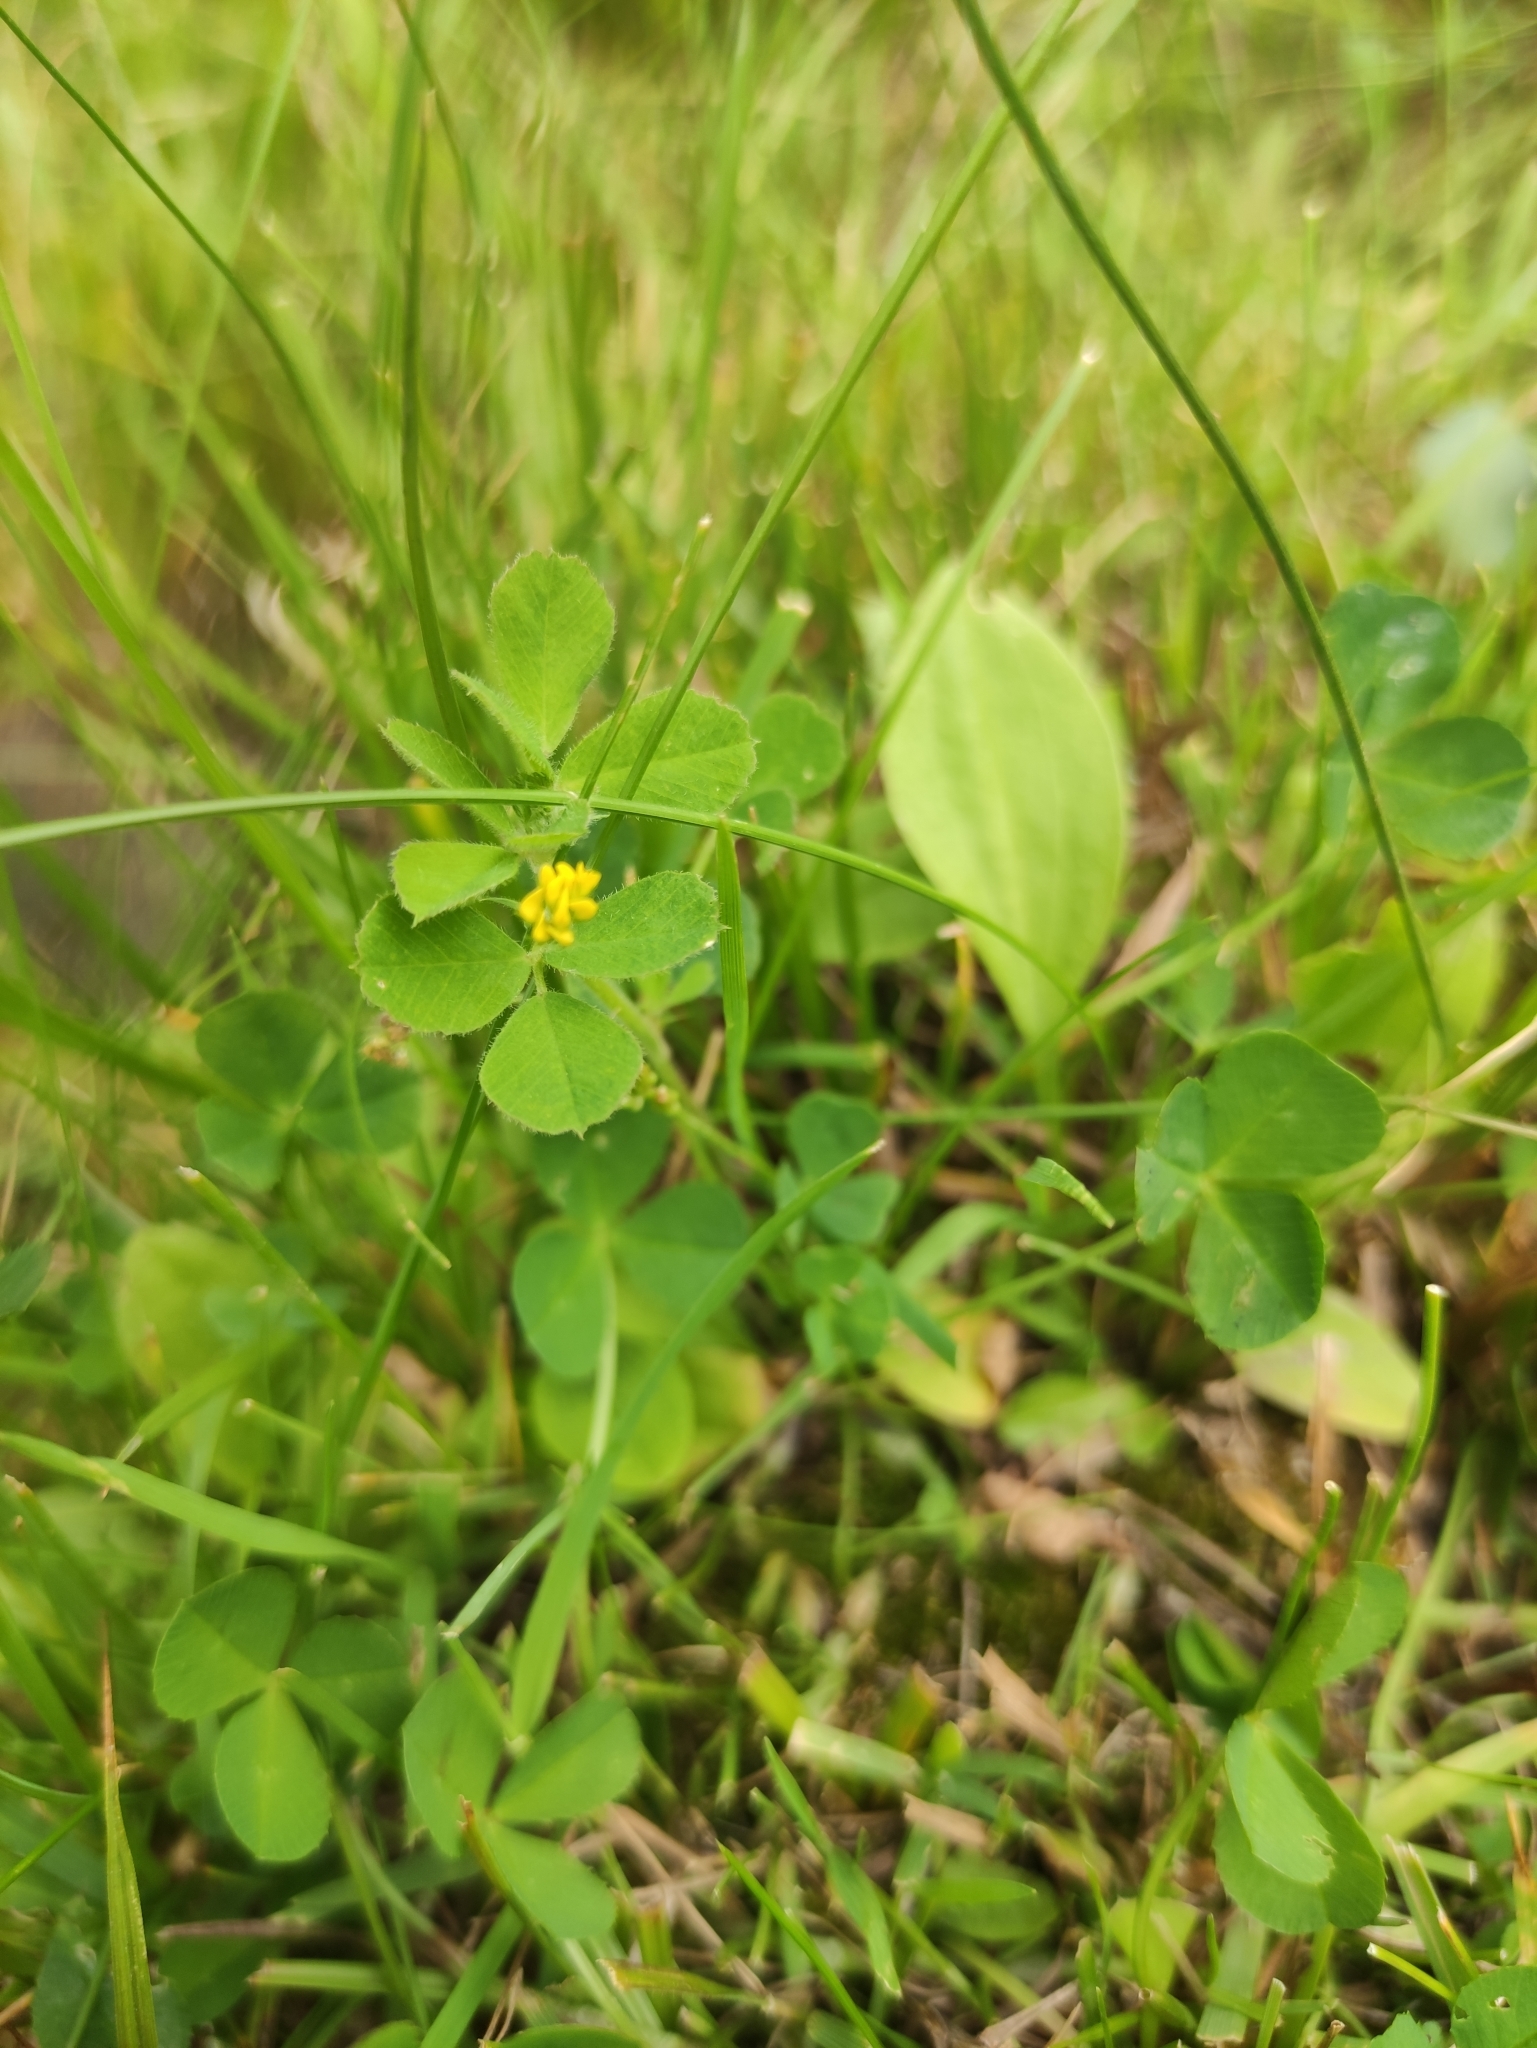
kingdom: Plantae
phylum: Tracheophyta
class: Magnoliopsida
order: Fabales
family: Fabaceae
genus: Medicago
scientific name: Medicago lupulina
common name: Black medick
